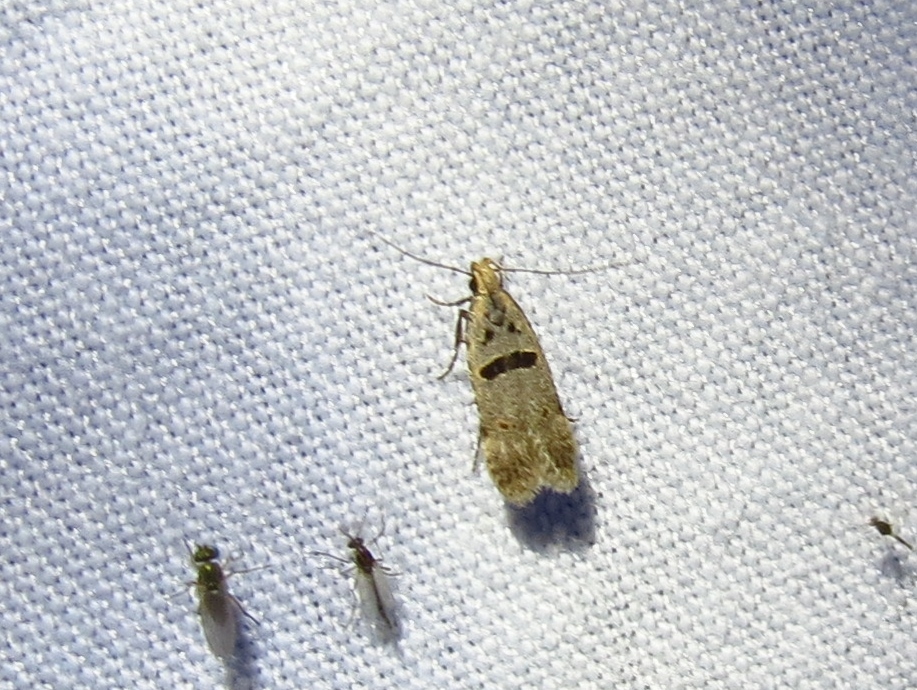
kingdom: Animalia
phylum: Arthropoda
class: Insecta
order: Lepidoptera
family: Gelechiidae
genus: Deltophora
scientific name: Deltophora glandiferella
